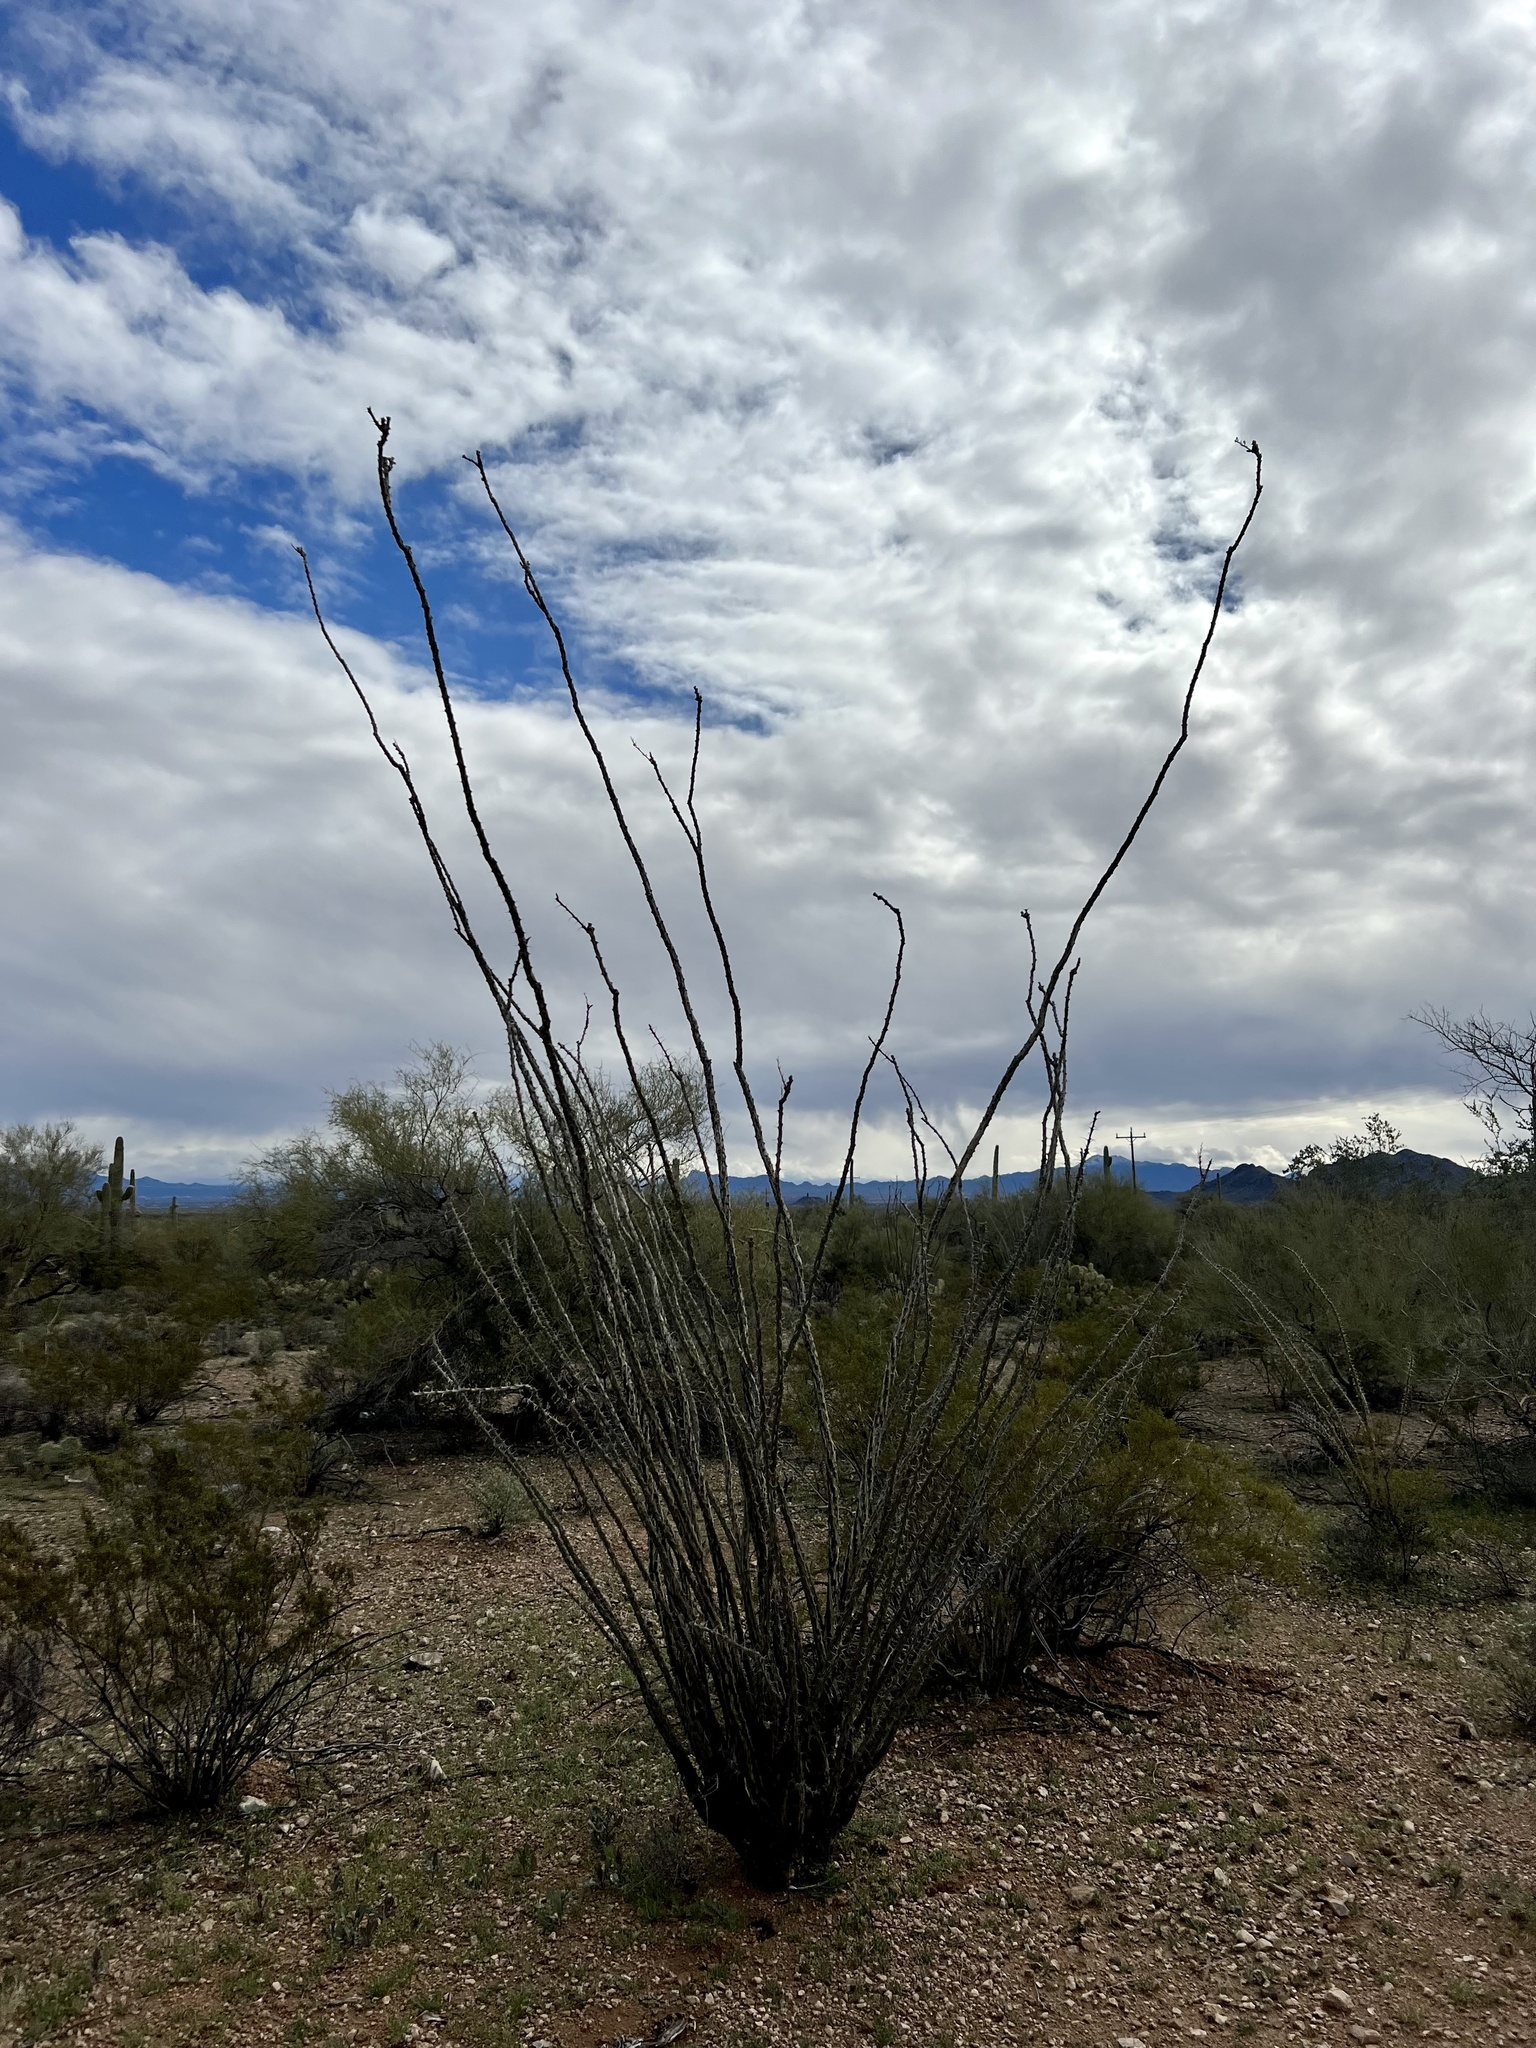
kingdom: Plantae
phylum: Tracheophyta
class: Magnoliopsida
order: Ericales
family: Fouquieriaceae
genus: Fouquieria
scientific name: Fouquieria splendens
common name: Vine-cactus
